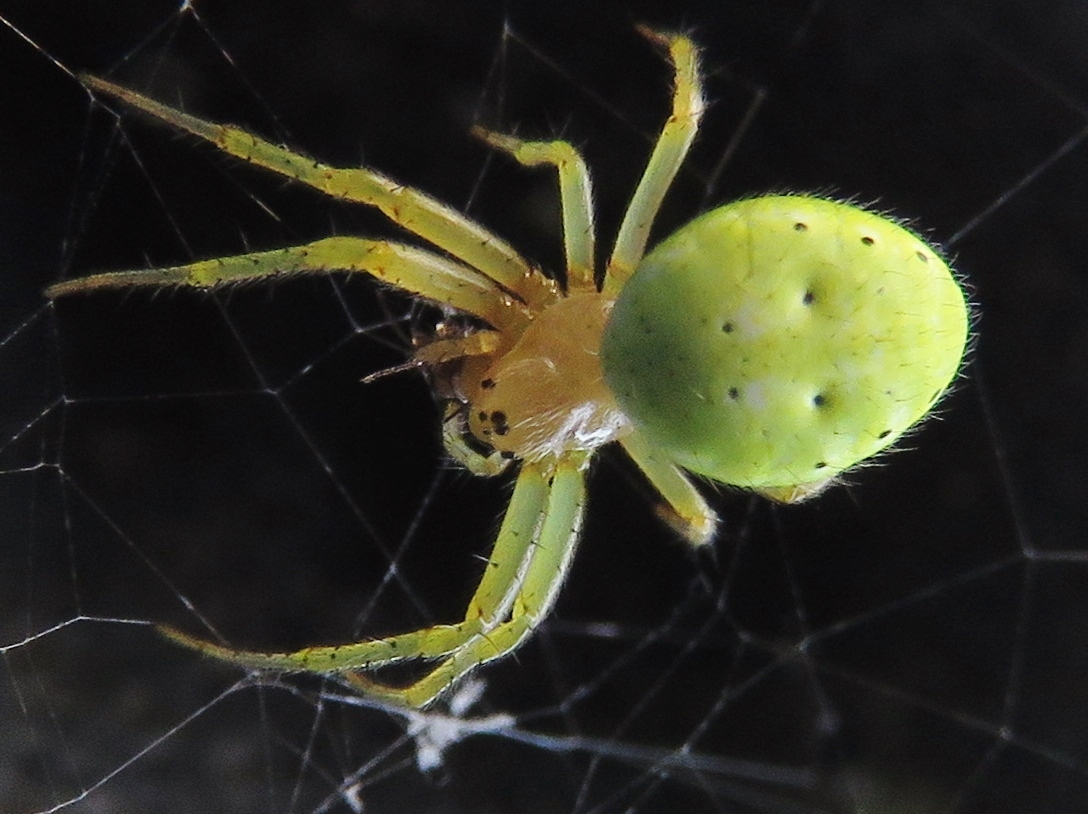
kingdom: Animalia
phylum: Arthropoda
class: Arachnida
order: Araneae
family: Araneidae
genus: Araniella
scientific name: Araniella cucurbitina
